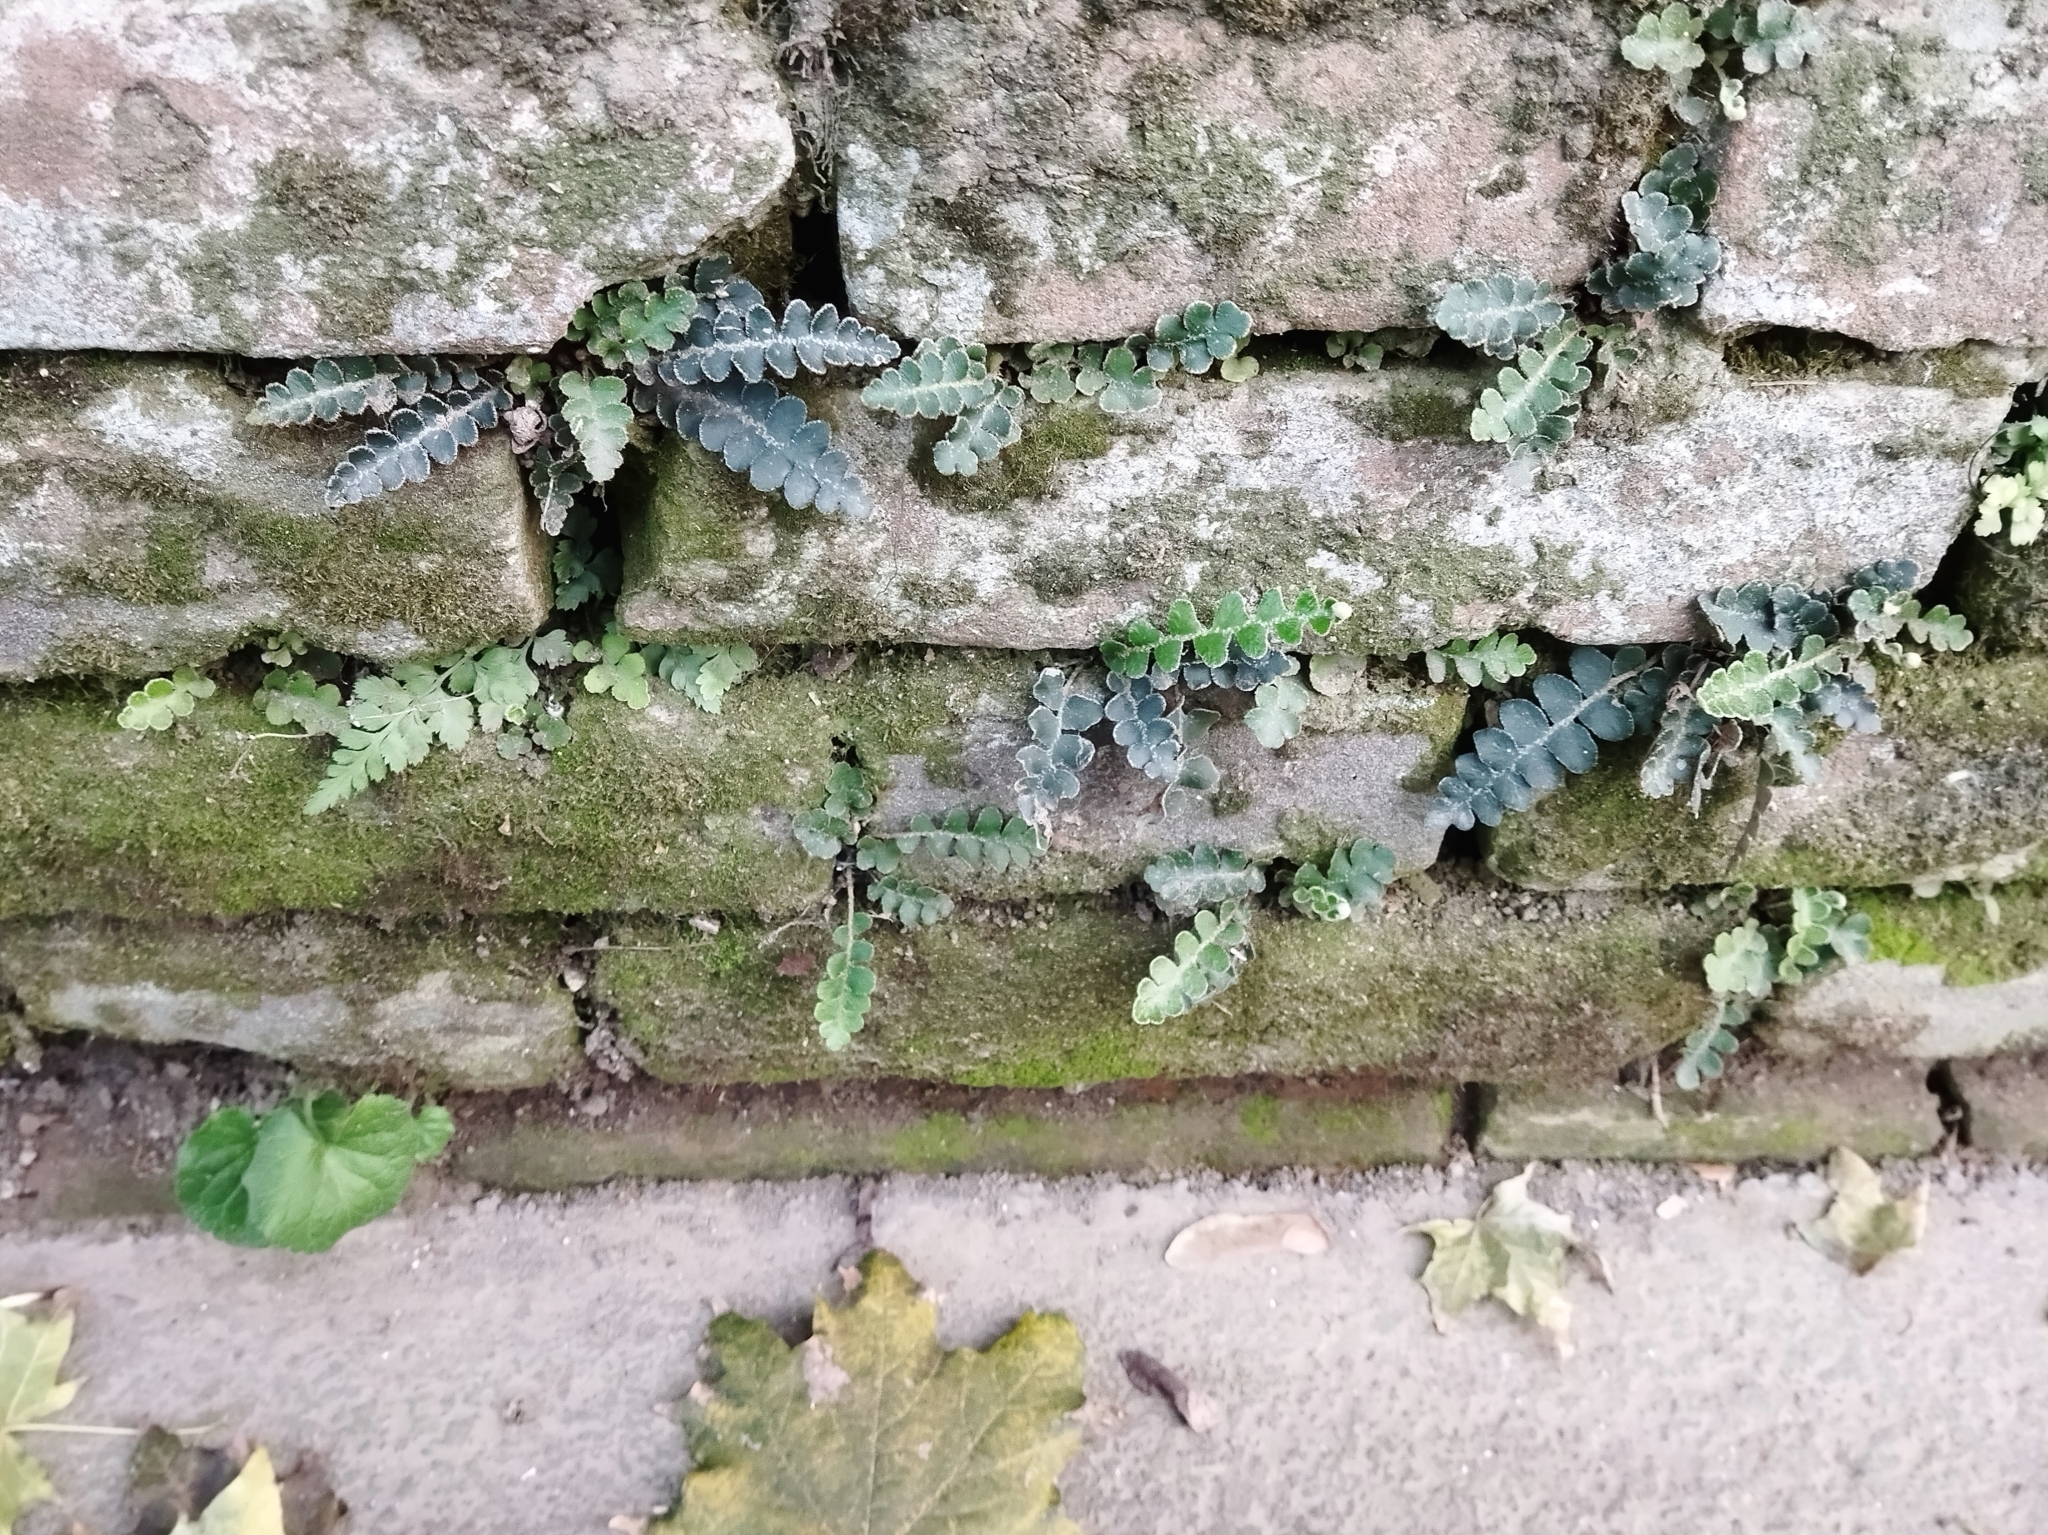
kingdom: Plantae
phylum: Tracheophyta
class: Polypodiopsida
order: Polypodiales
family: Aspleniaceae
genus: Asplenium
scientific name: Asplenium ceterach
